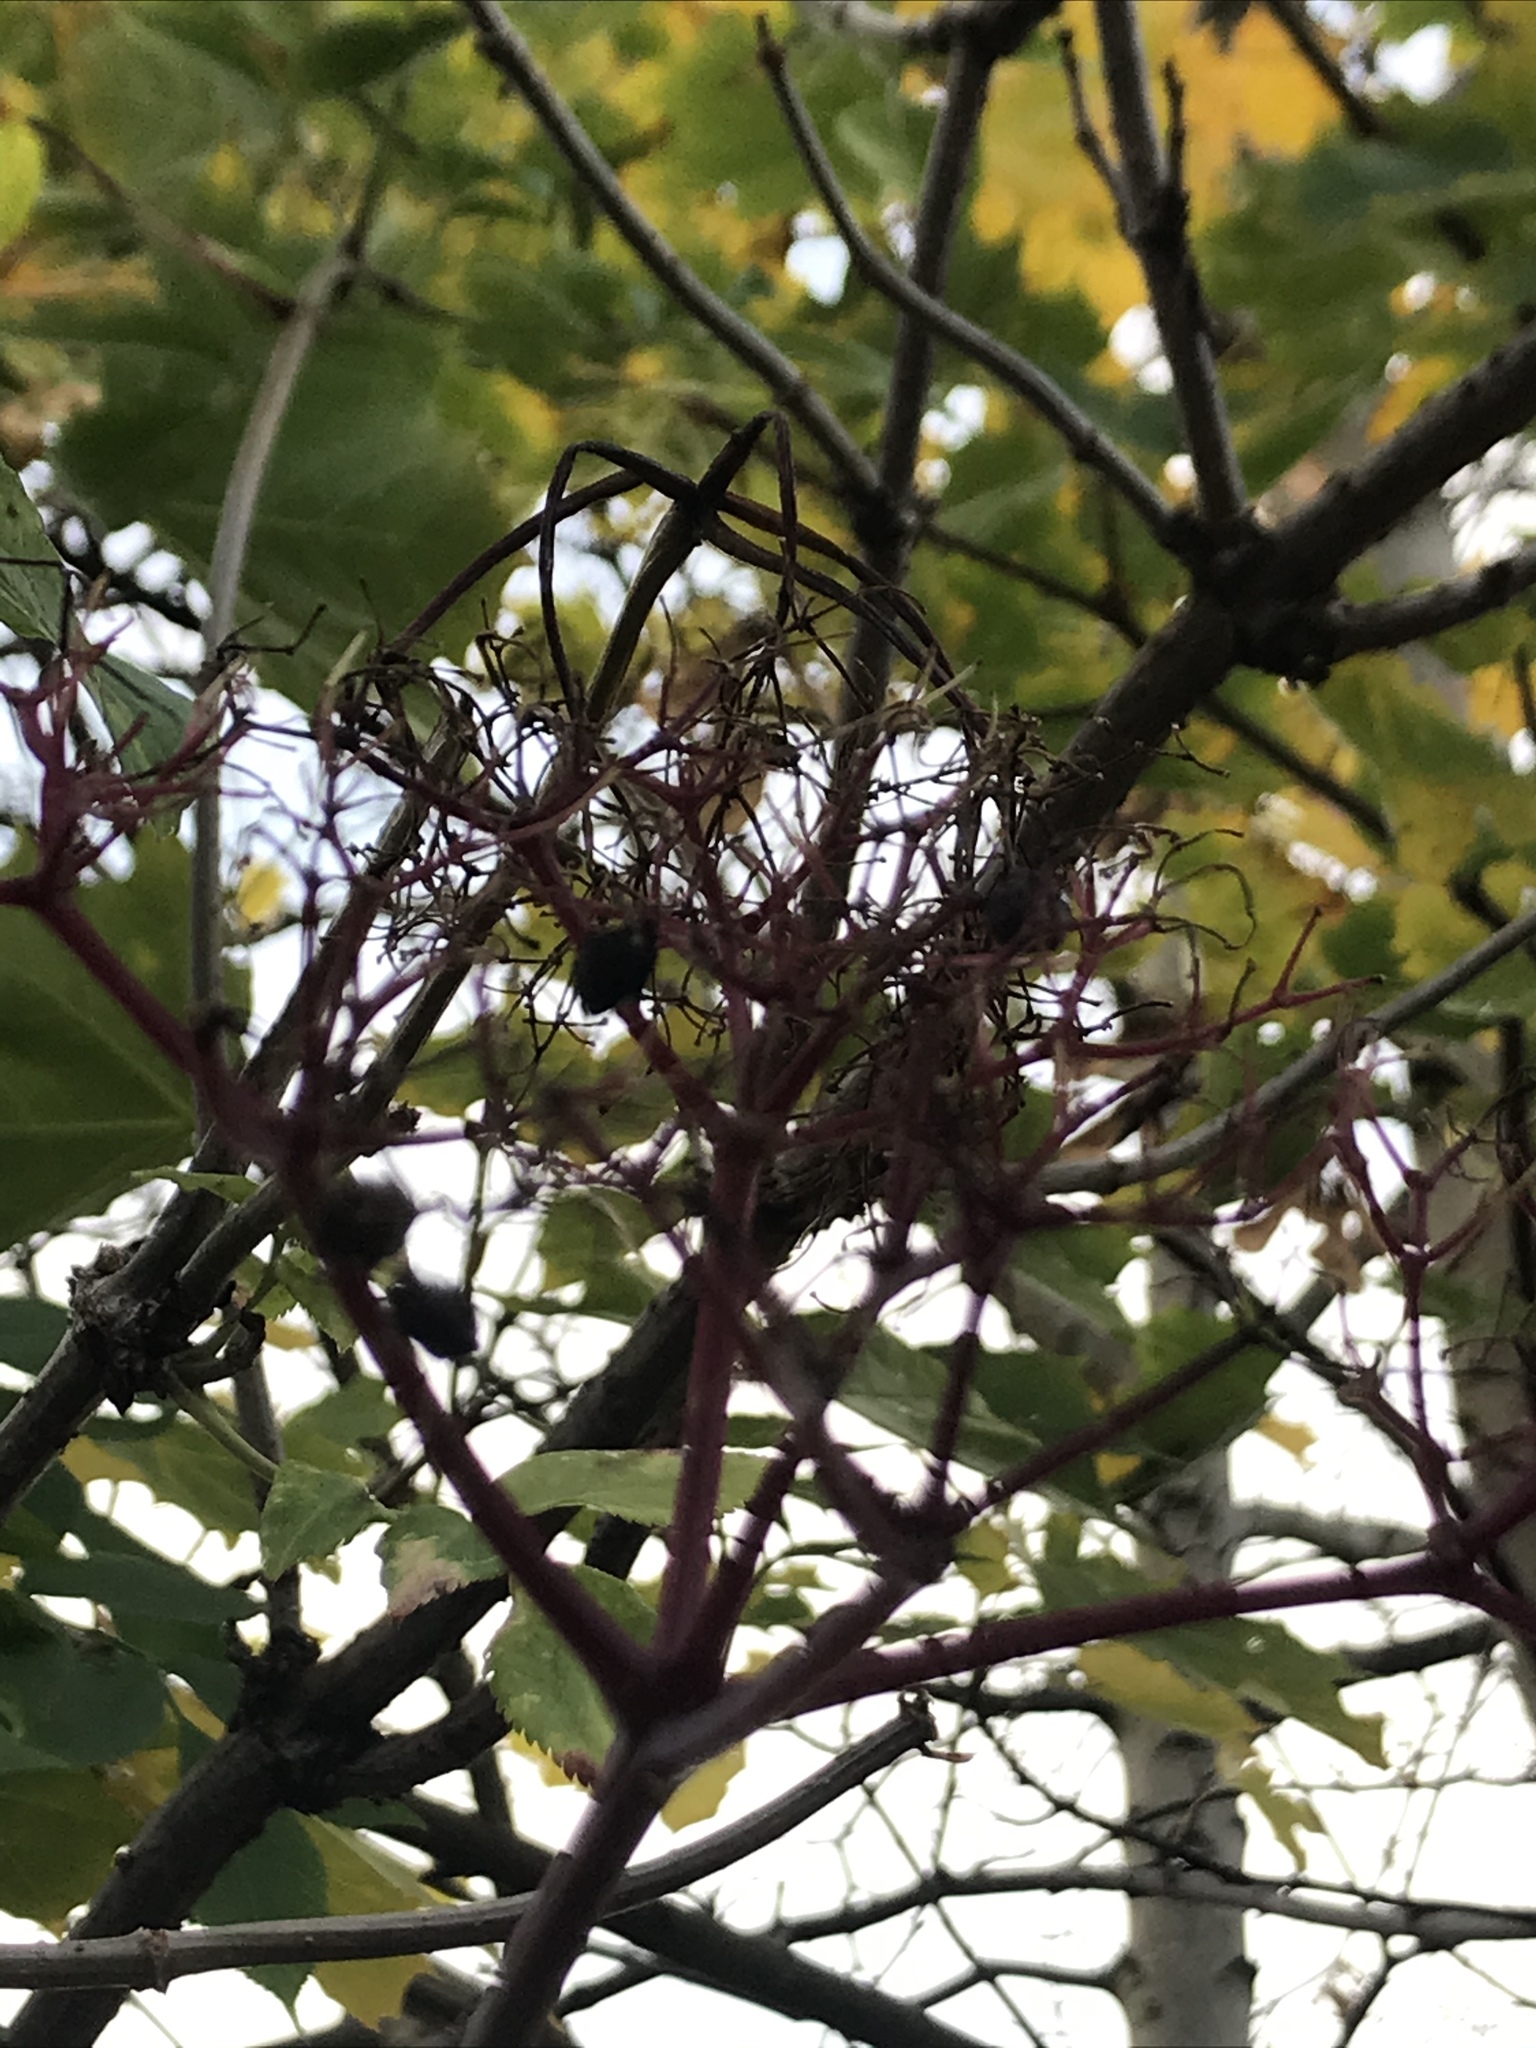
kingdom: Plantae
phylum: Tracheophyta
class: Magnoliopsida
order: Dipsacales
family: Viburnaceae
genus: Sambucus
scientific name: Sambucus nigra
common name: Elder
